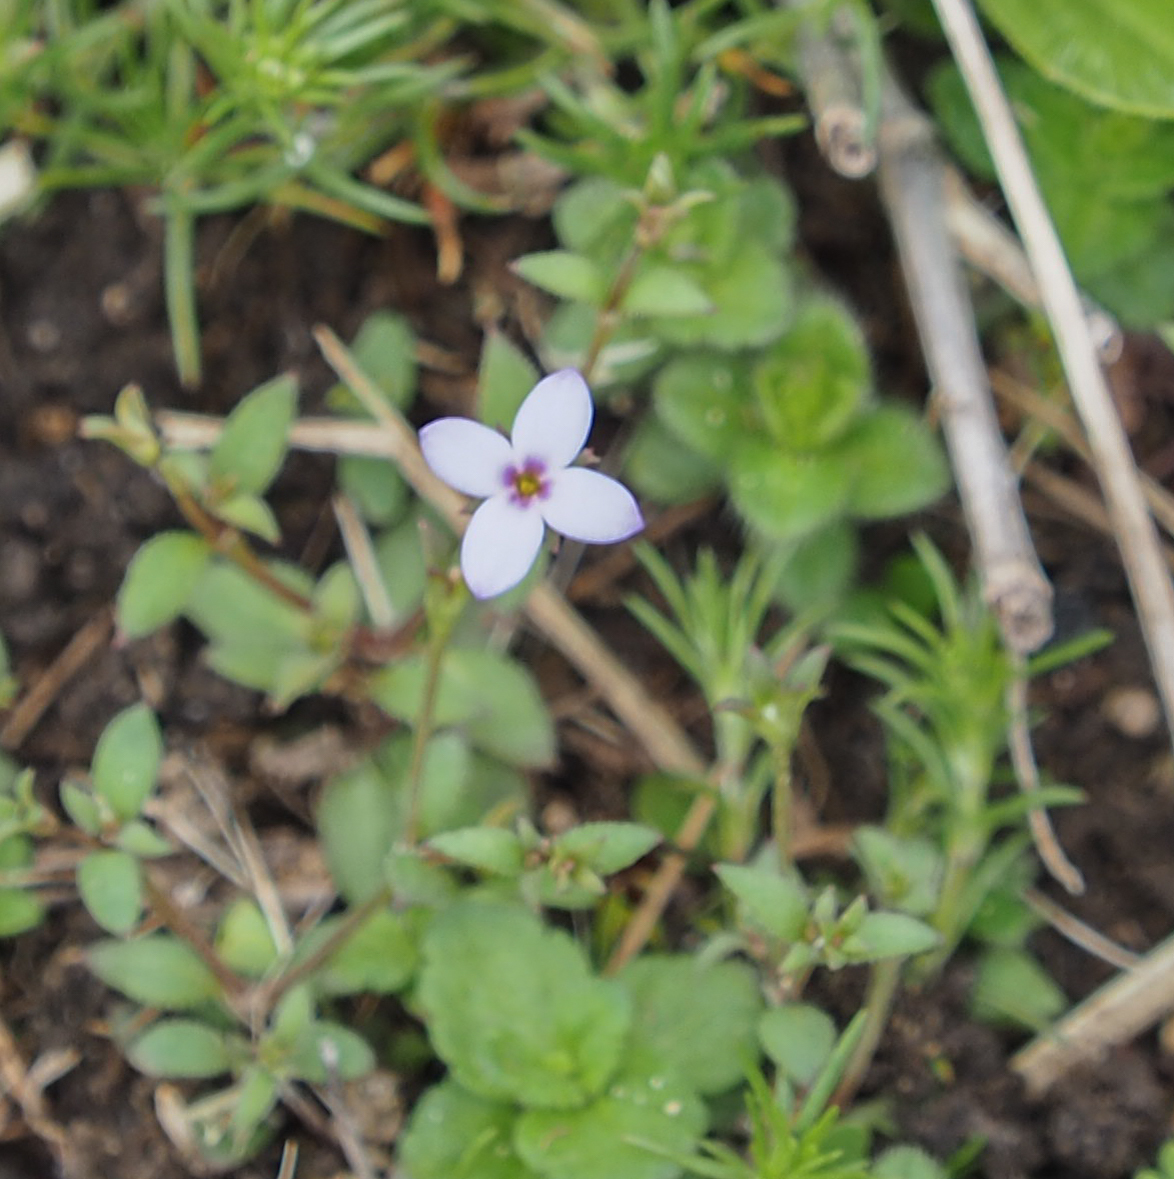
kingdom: Plantae
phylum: Tracheophyta
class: Magnoliopsida
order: Gentianales
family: Rubiaceae
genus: Houstonia
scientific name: Houstonia pusilla
